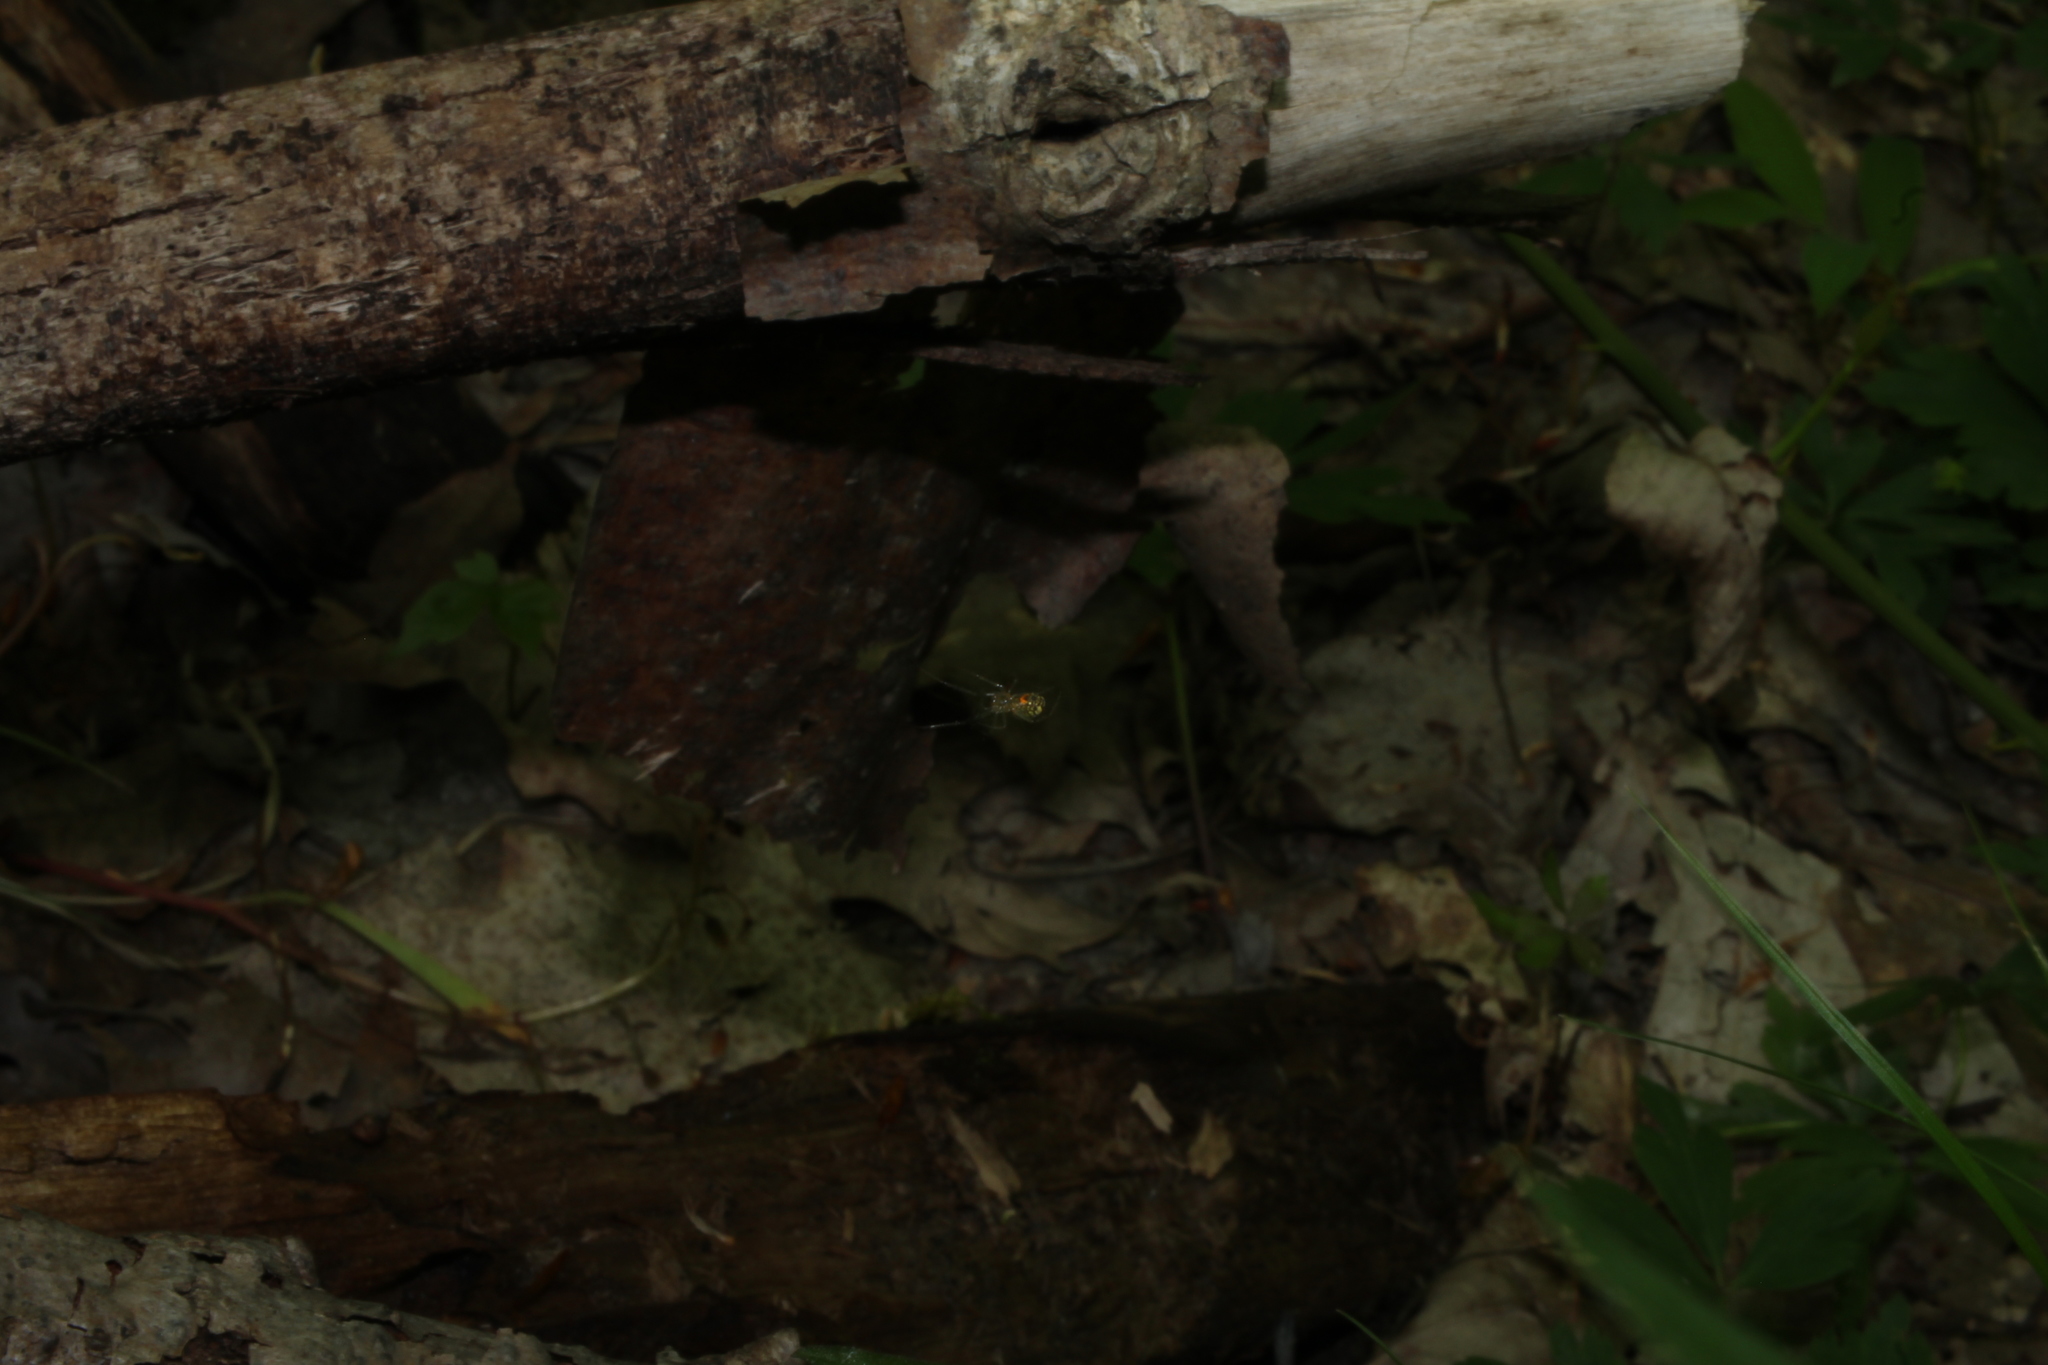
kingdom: Animalia
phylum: Arthropoda
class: Arachnida
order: Araneae
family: Tetragnathidae
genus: Leucauge
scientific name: Leucauge venusta
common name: Longjawed orb weavers
